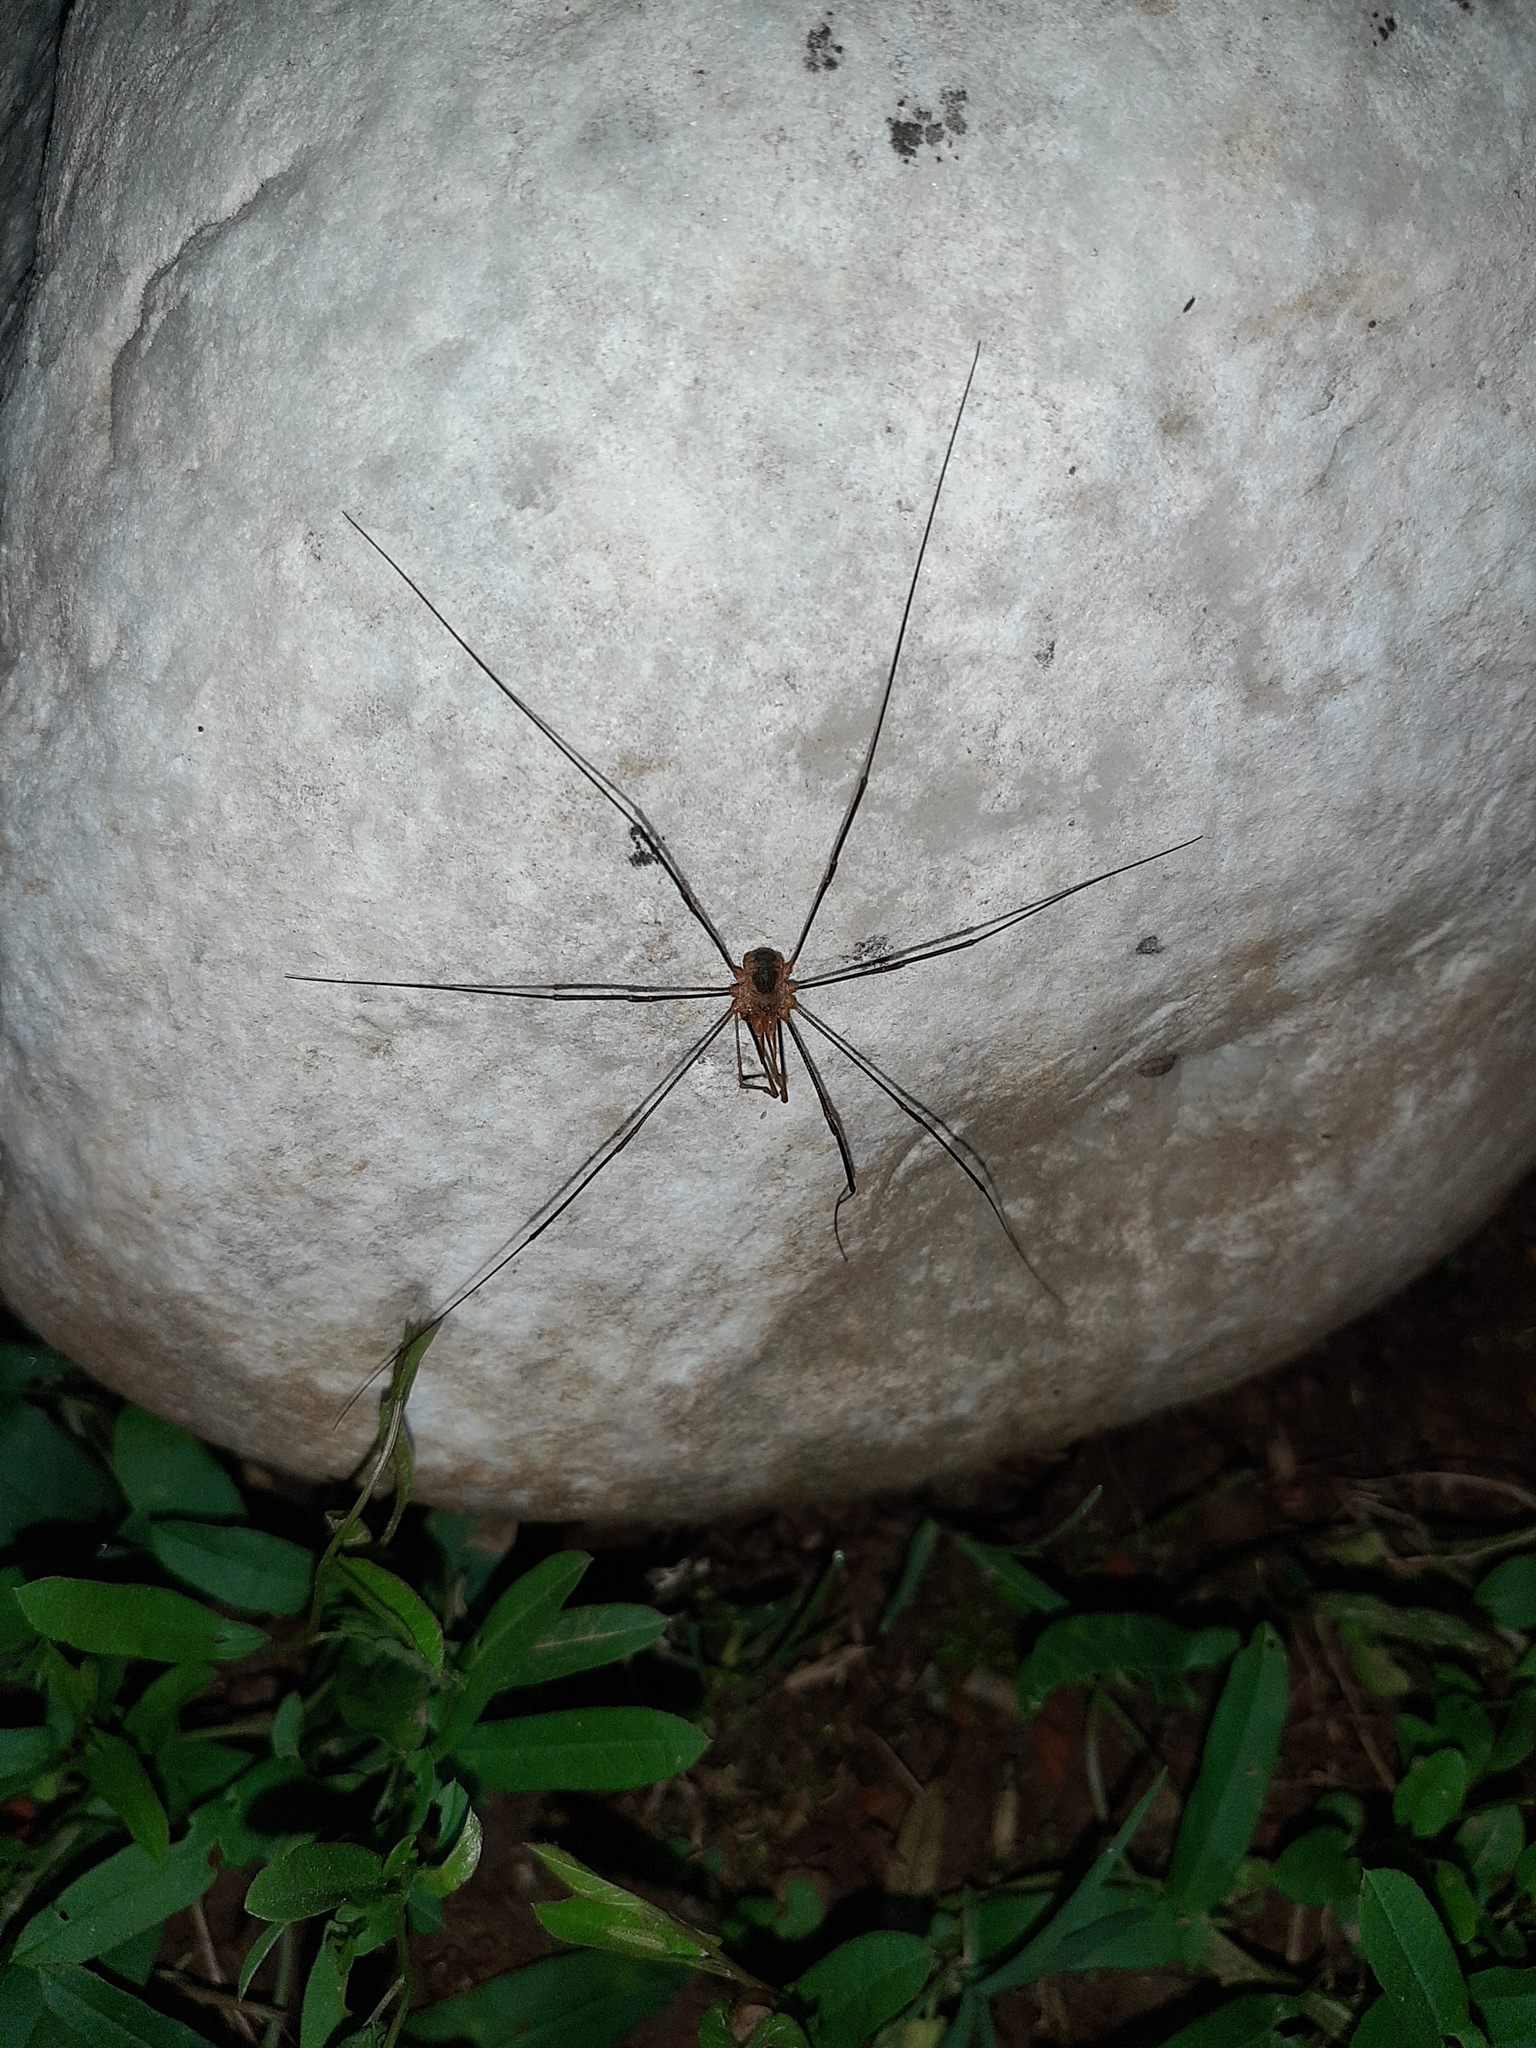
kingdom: Animalia
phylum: Arthropoda
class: Arachnida
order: Opiliones
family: Phalangiidae
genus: Phalangium
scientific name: Phalangium opilio
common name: Daddy longleg
